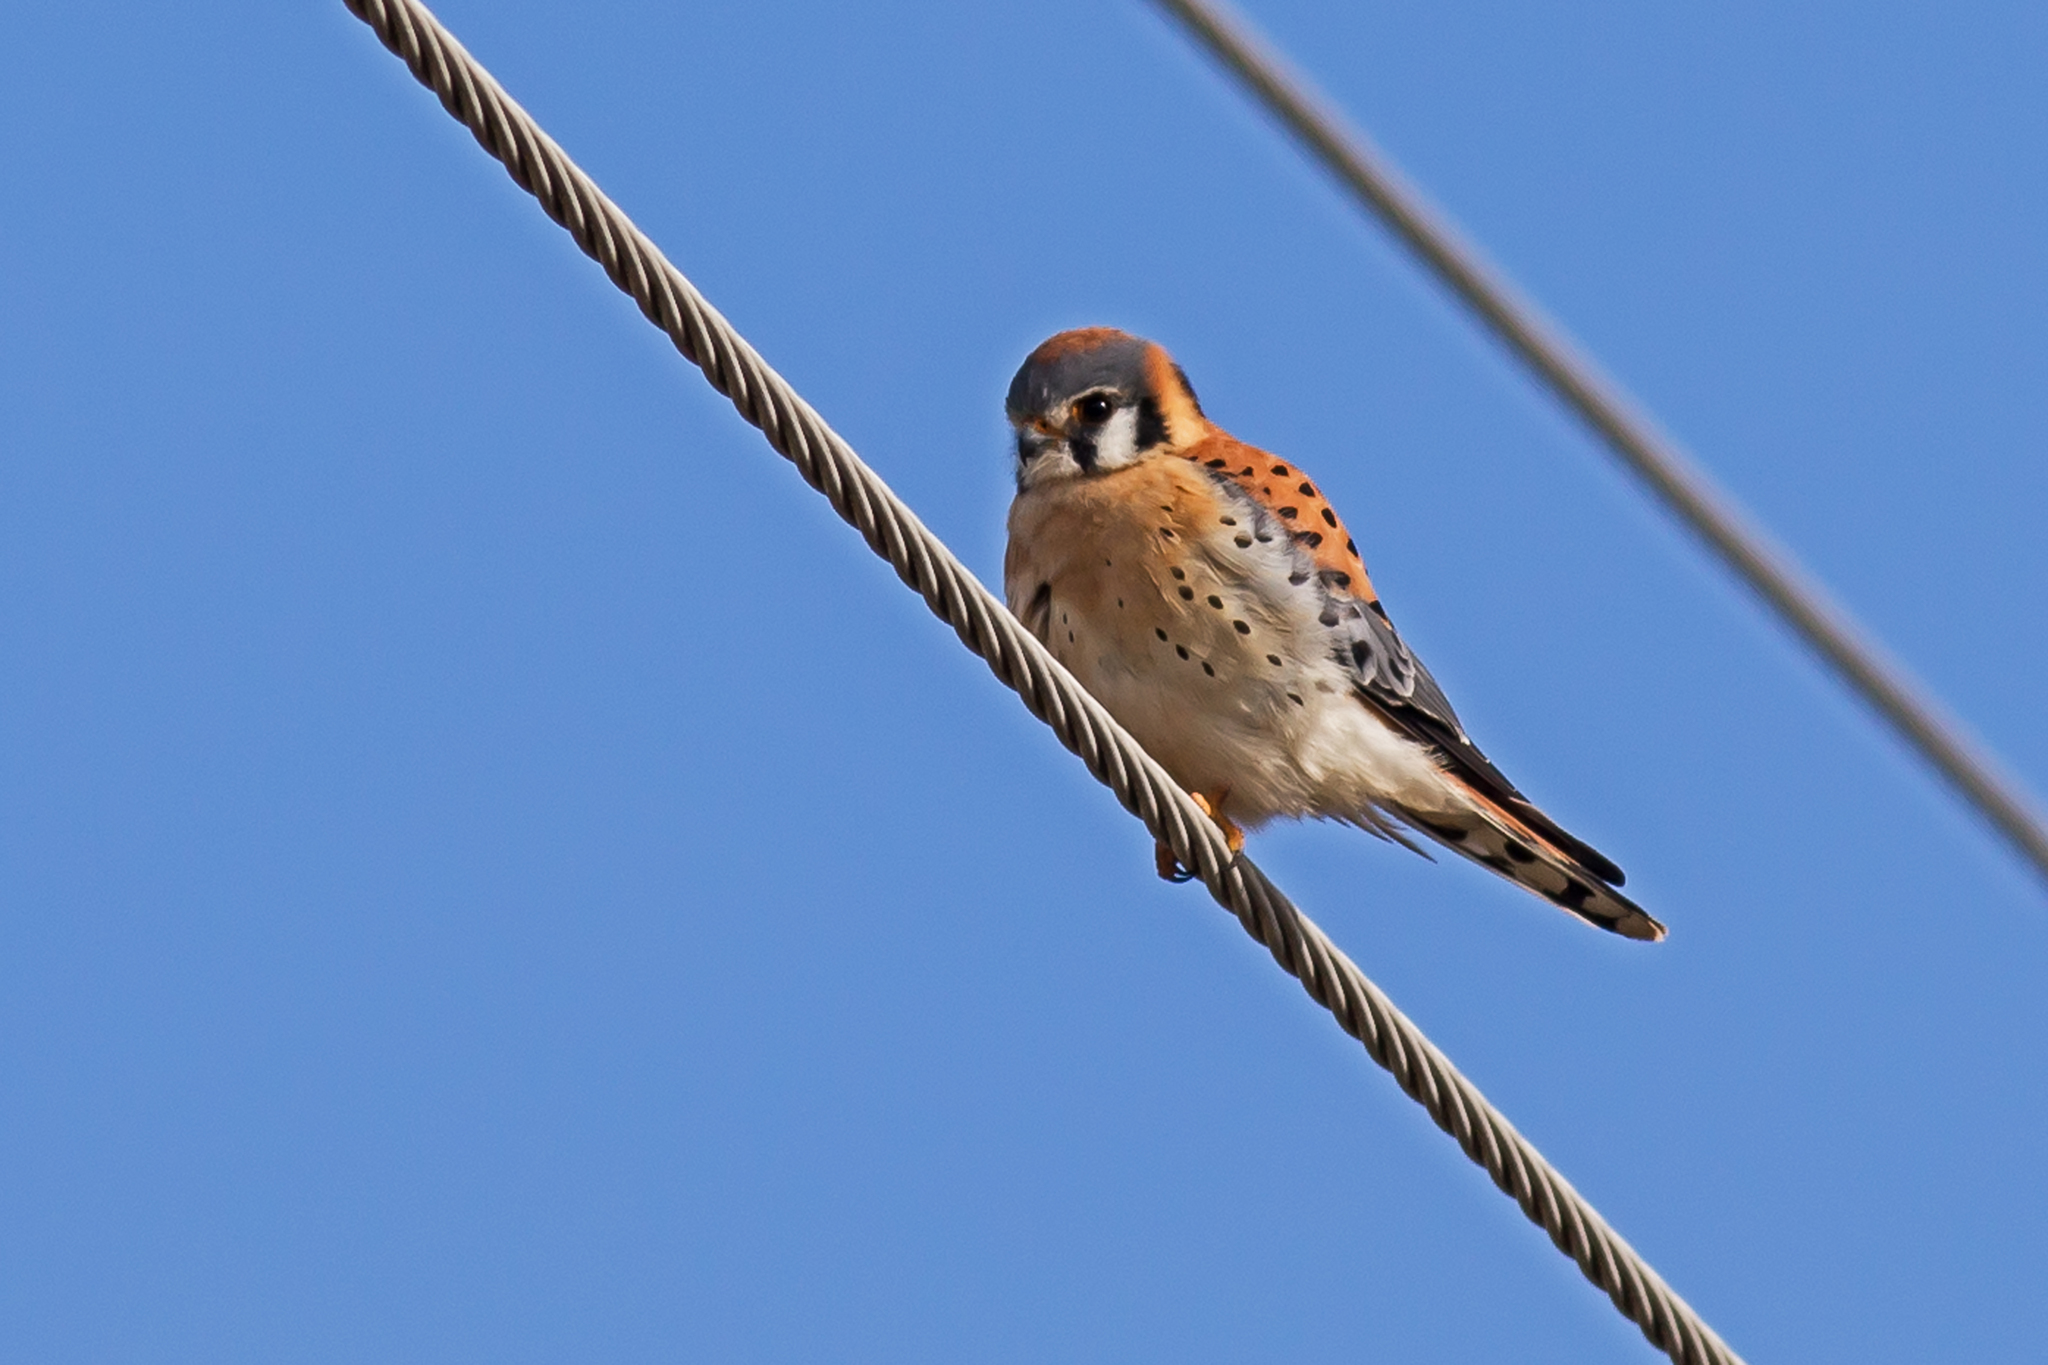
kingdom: Animalia
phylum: Chordata
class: Aves
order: Falconiformes
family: Falconidae
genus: Falco
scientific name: Falco sparverius
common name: American kestrel
